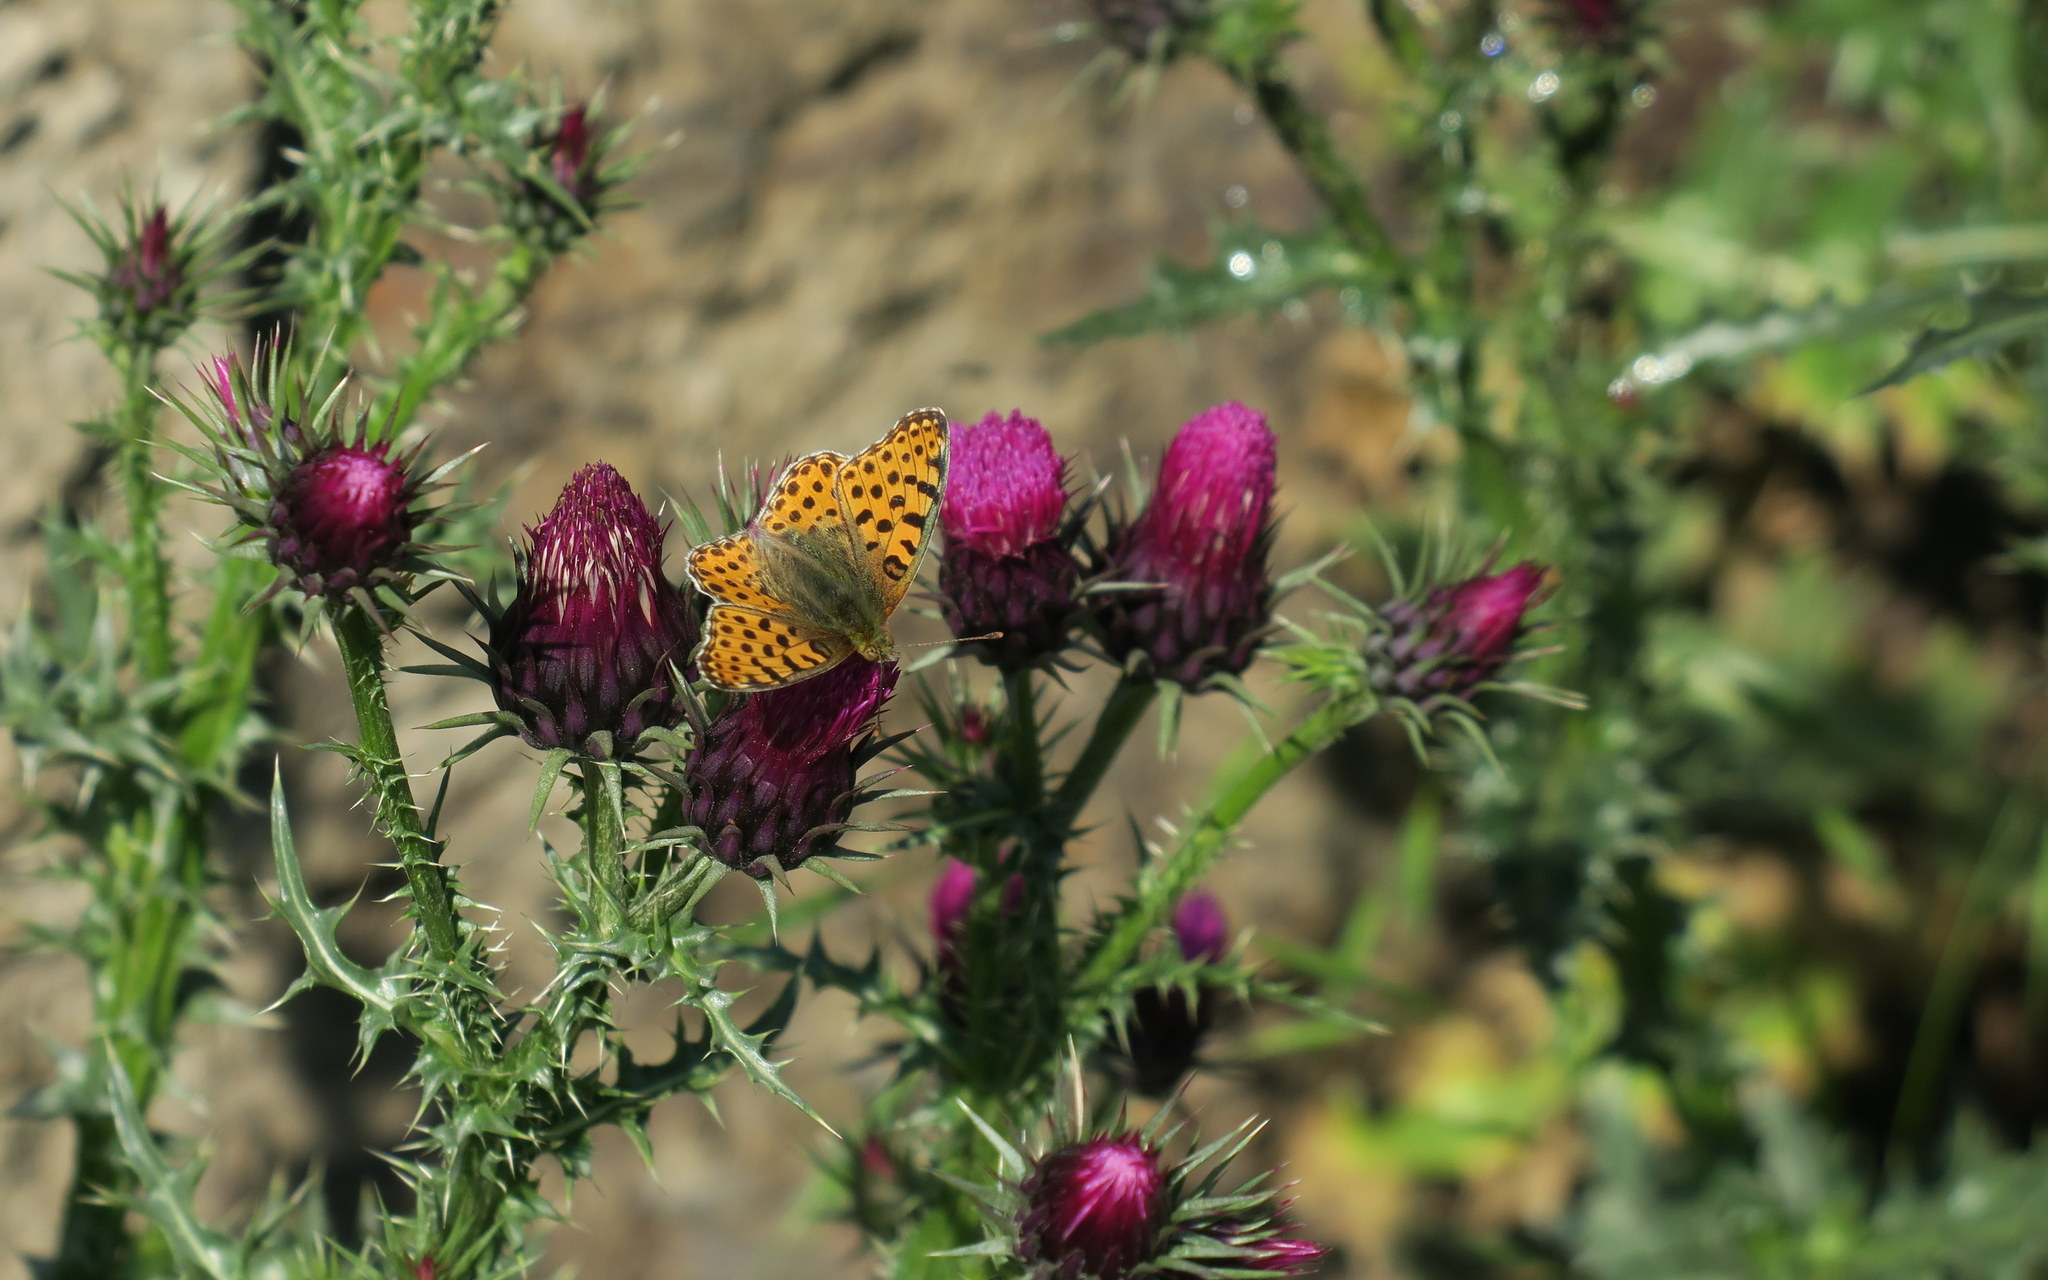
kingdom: Animalia
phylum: Arthropoda
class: Insecta
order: Lepidoptera
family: Nymphalidae
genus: Issoria
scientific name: Issoria lathonia
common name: Queen of spain fritillary
